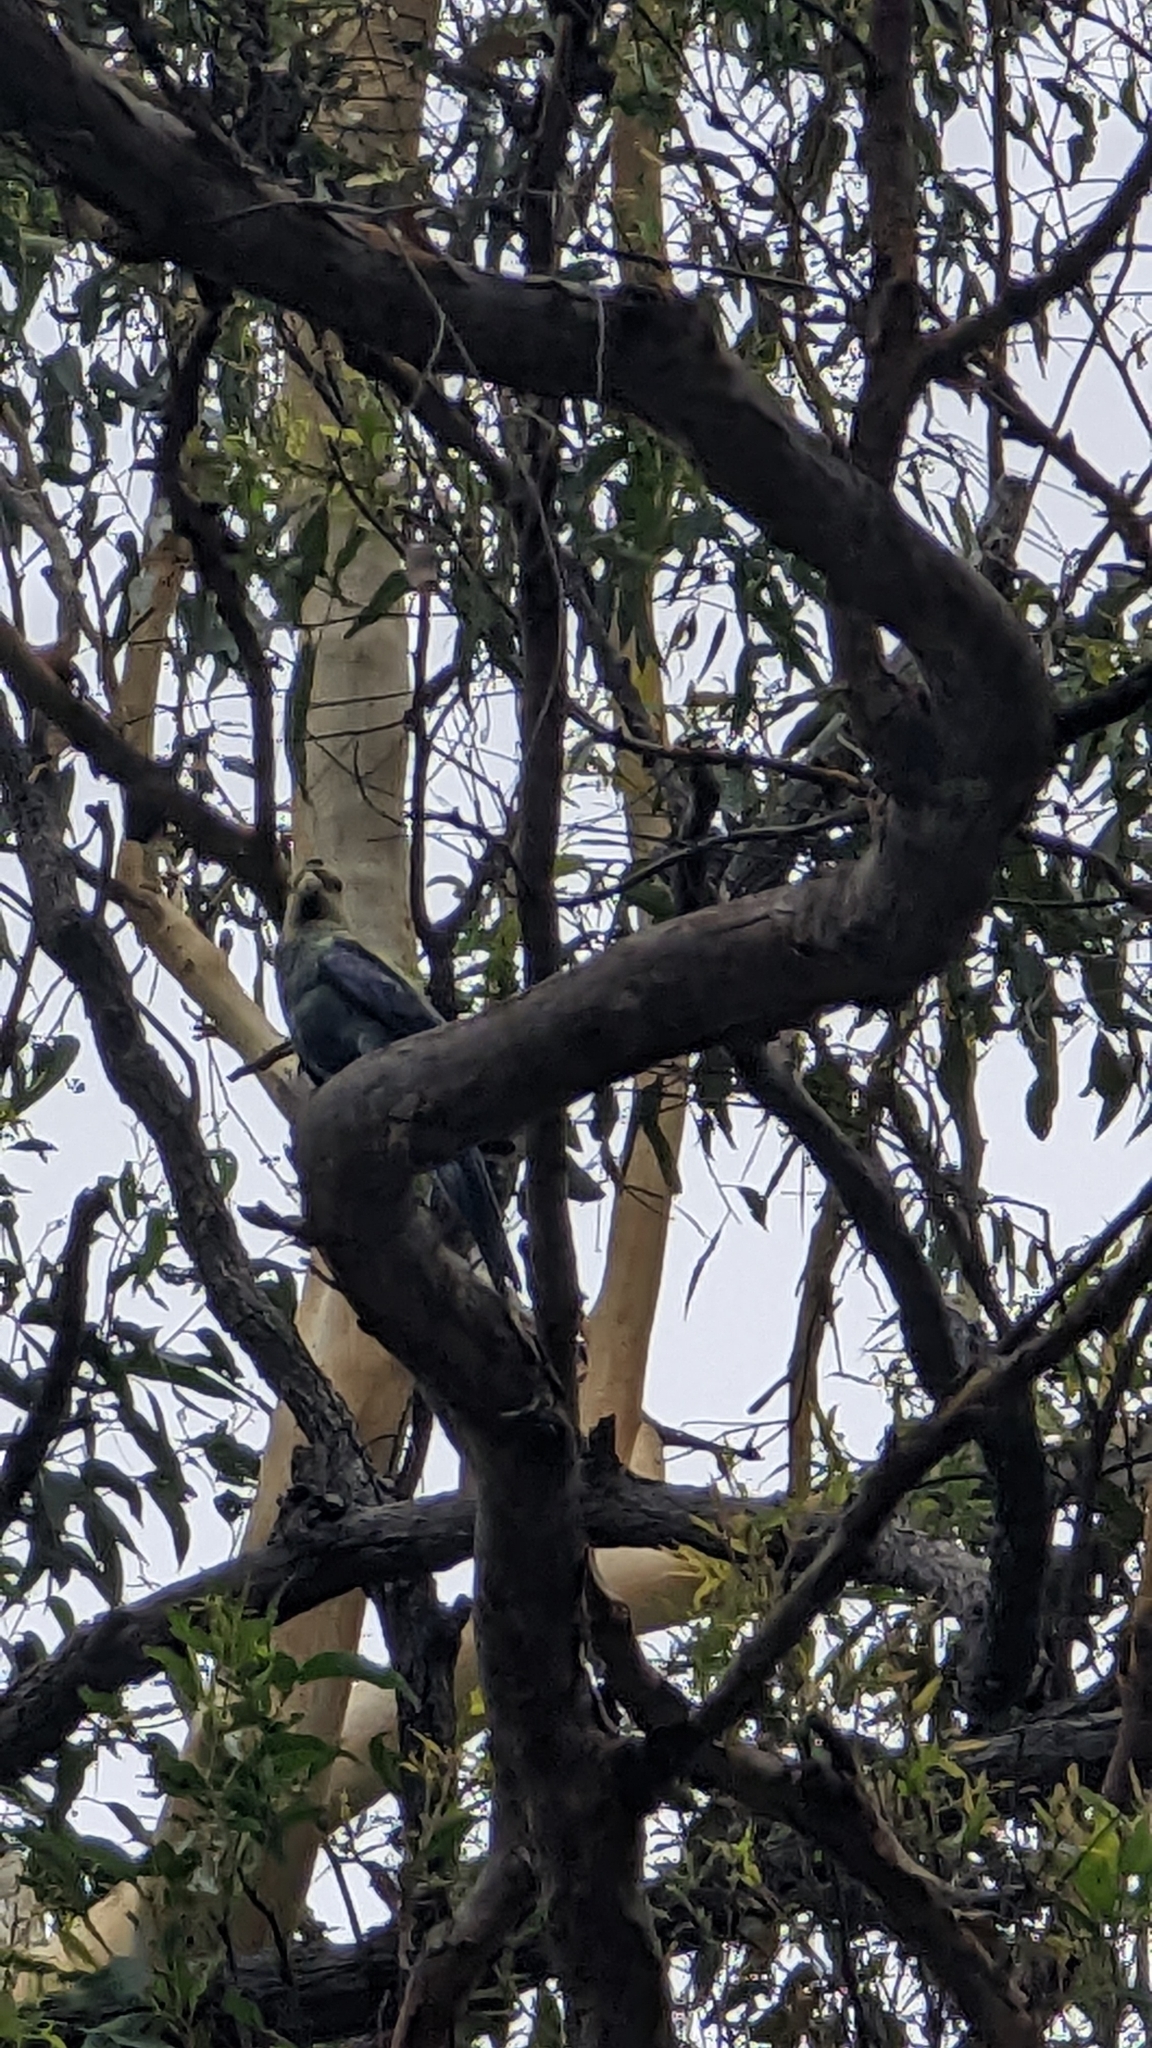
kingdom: Animalia
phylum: Chordata
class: Aves
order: Psittaciformes
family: Psittacidae
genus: Platycercus
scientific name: Platycercus adscitus
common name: Pale-headed rosella
